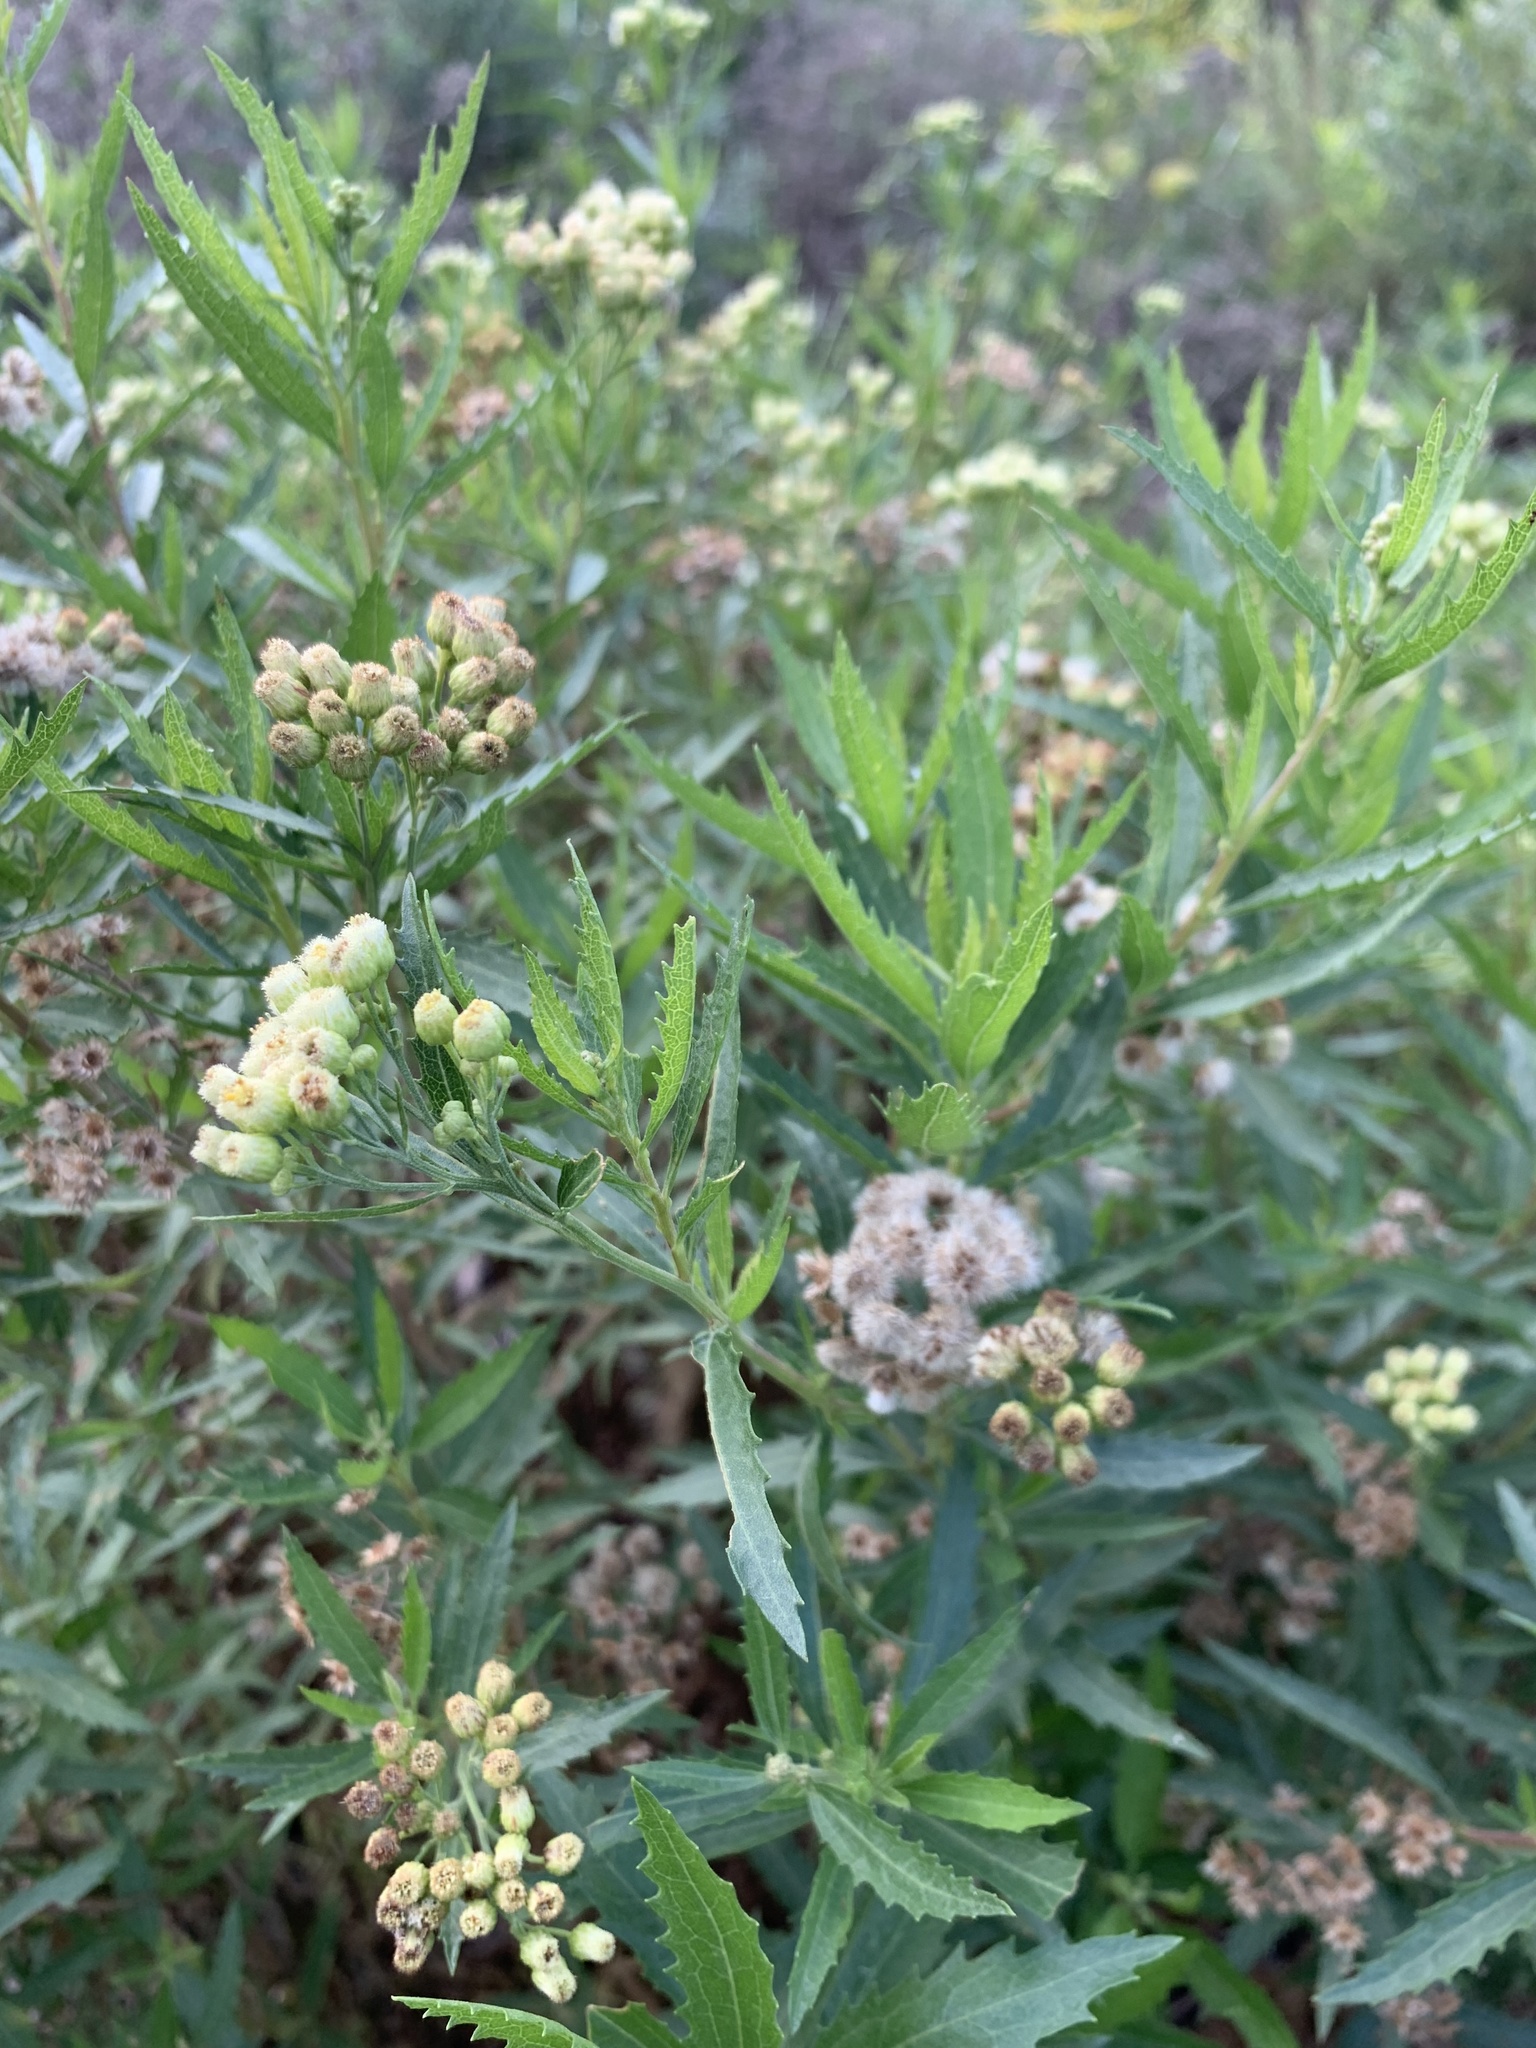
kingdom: Plantae
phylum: Tracheophyta
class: Magnoliopsida
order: Asterales
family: Asteraceae
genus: Nidorella
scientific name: Nidorella ivifolia
